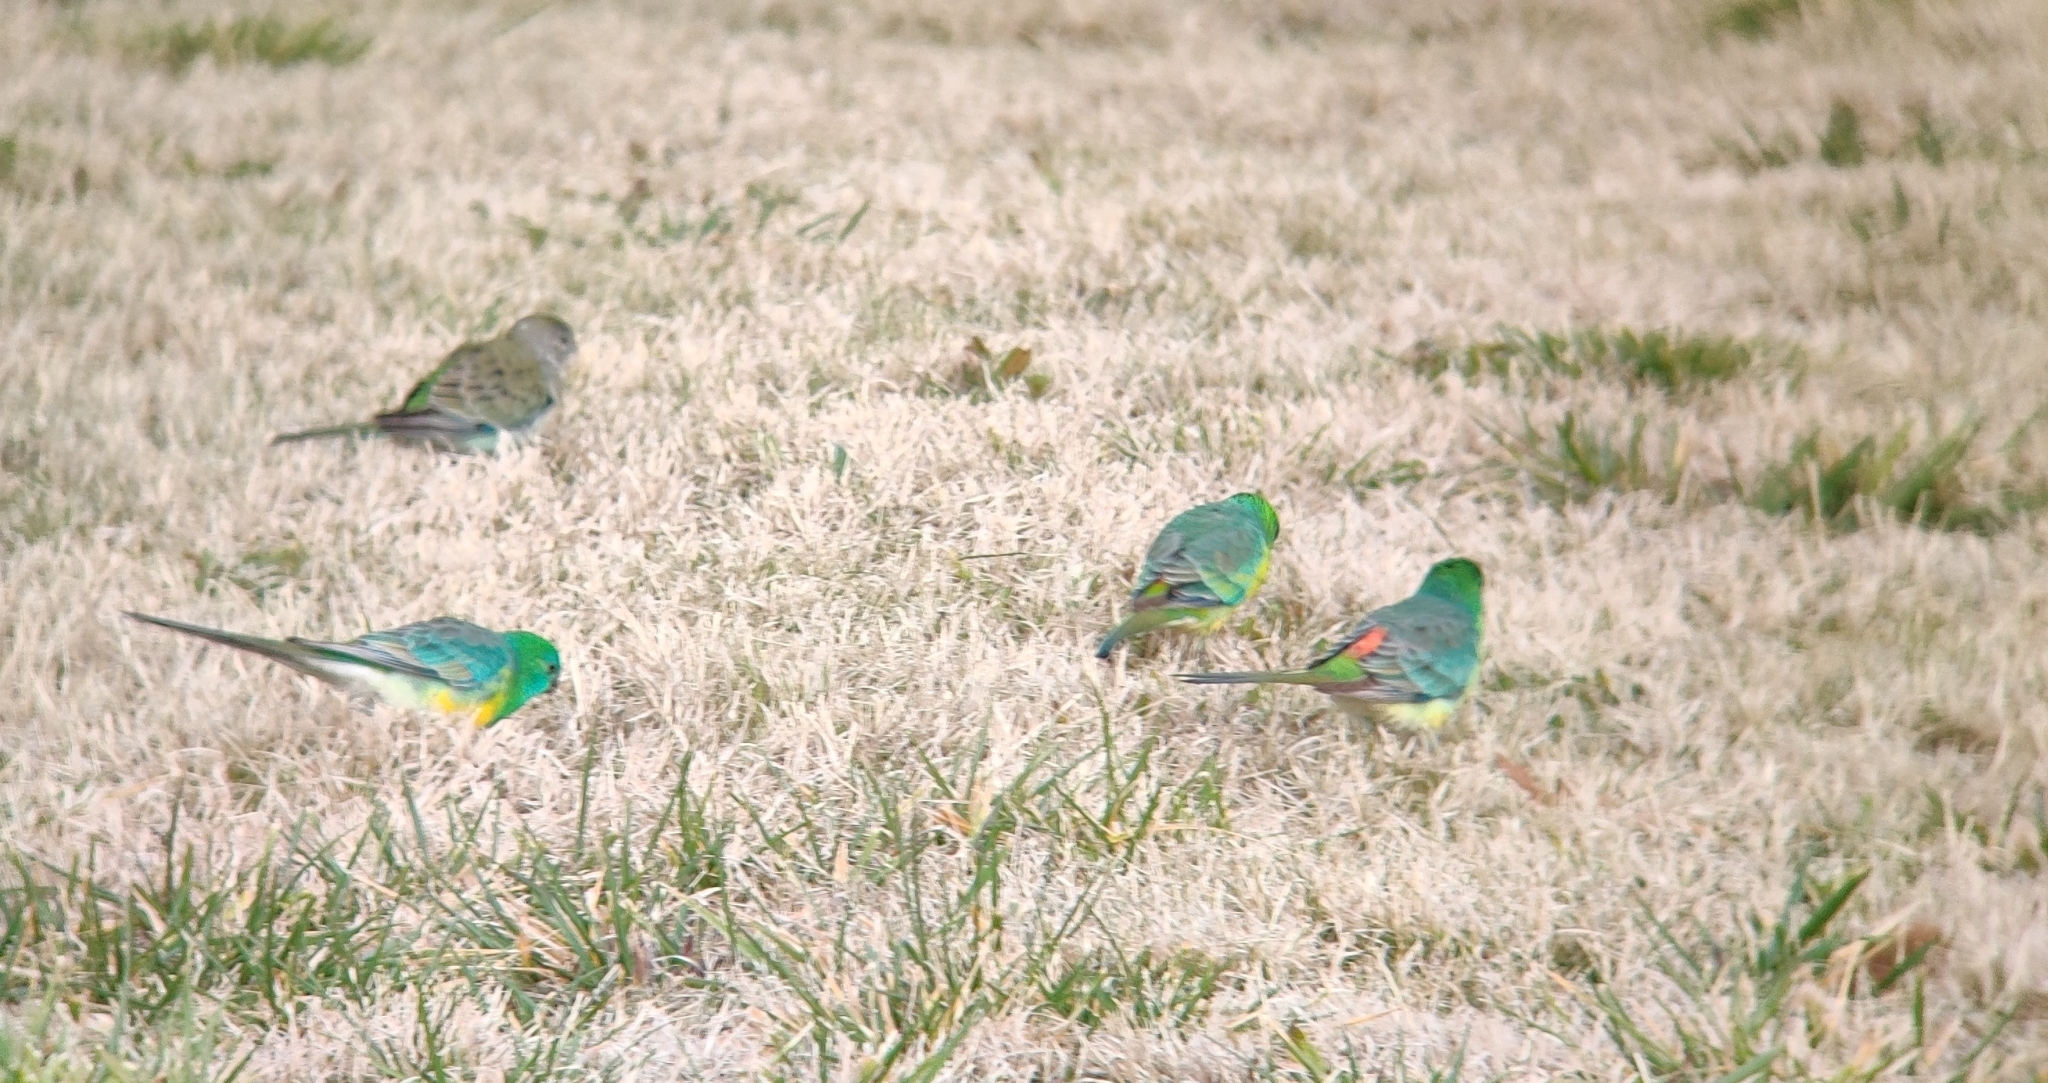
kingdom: Animalia
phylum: Chordata
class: Aves
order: Psittaciformes
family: Psittacidae
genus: Psephotus
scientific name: Psephotus haematonotus
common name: Red-rumped parrot
